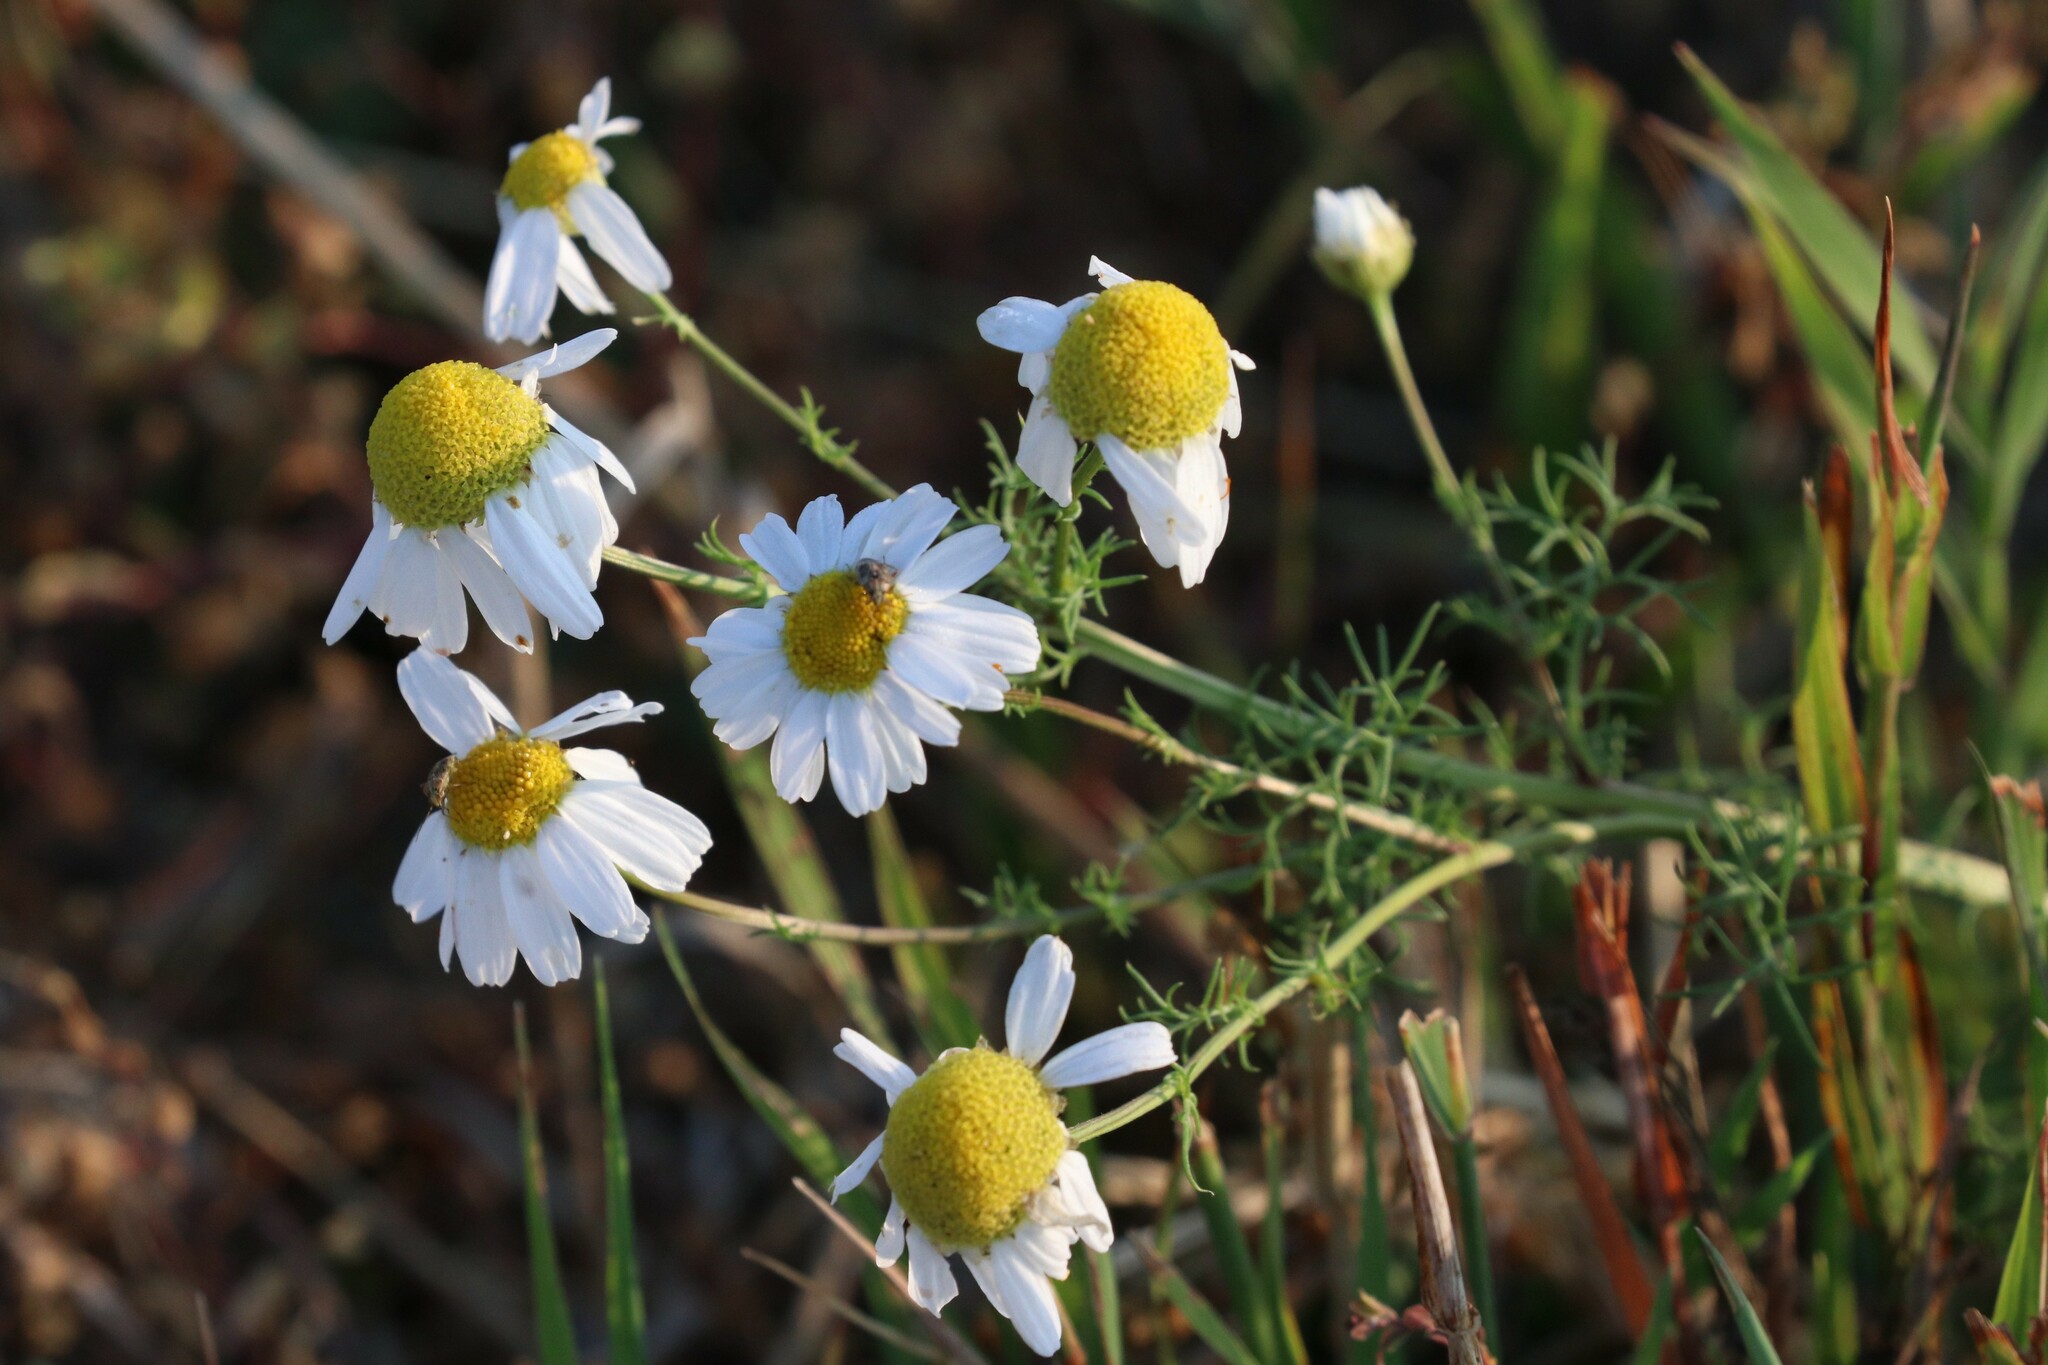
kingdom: Plantae
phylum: Tracheophyta
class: Magnoliopsida
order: Asterales
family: Asteraceae
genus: Tripleurospermum
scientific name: Tripleurospermum inodorum
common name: Scentless mayweed
